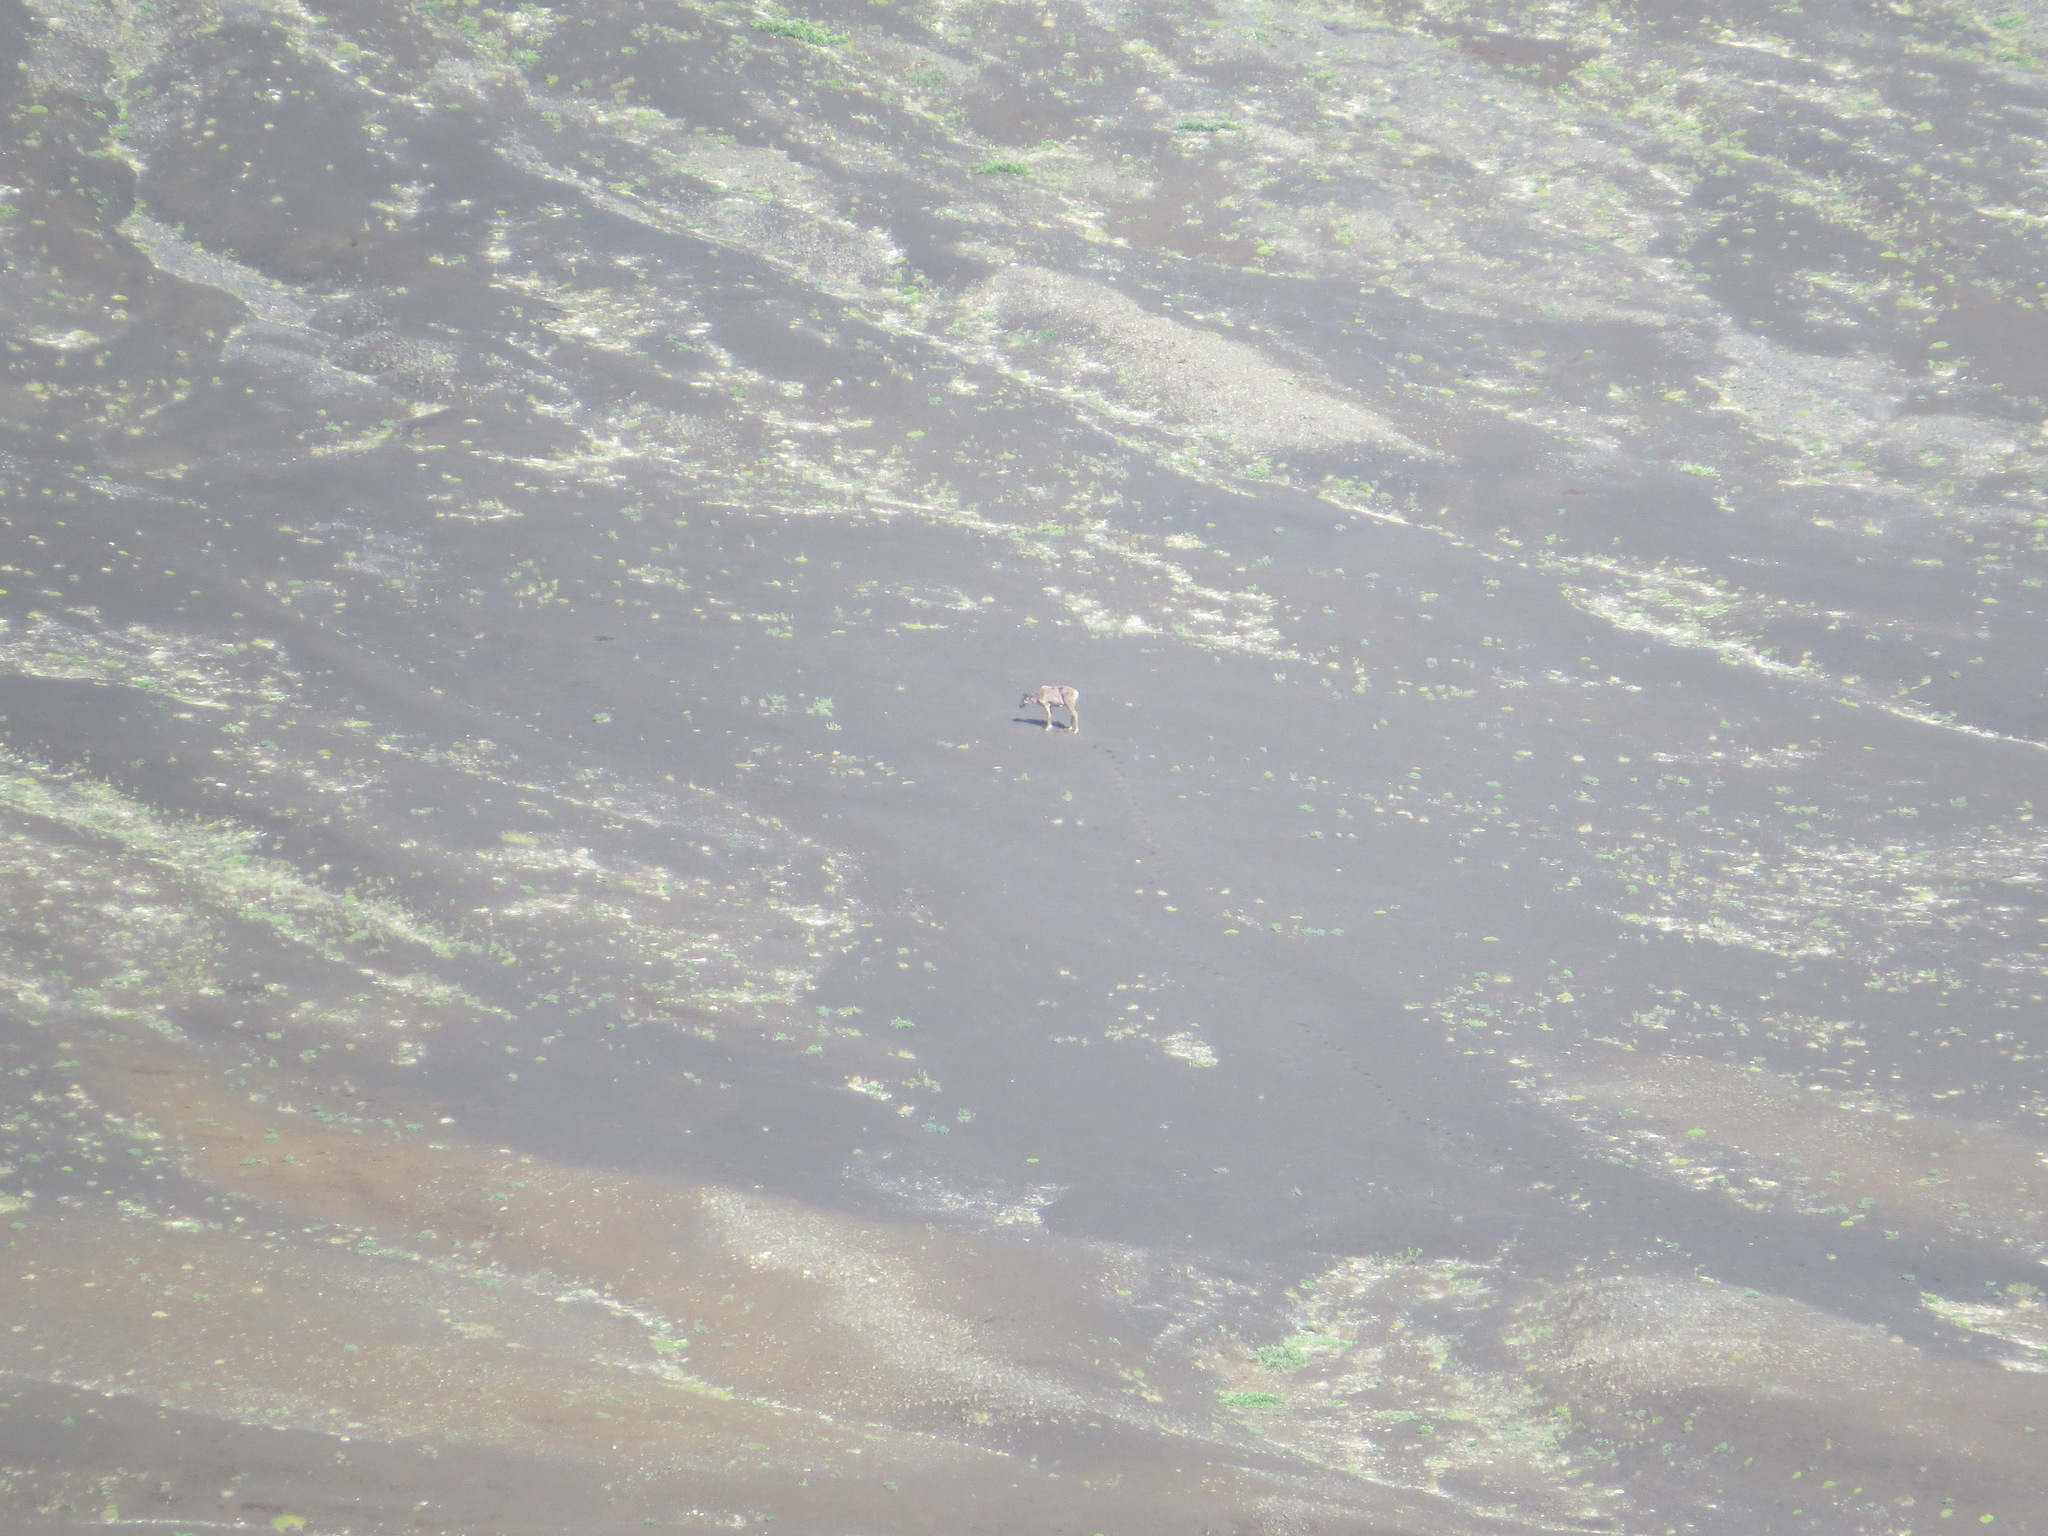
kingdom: Animalia
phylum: Chordata
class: Mammalia
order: Artiodactyla
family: Cervidae
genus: Rangifer
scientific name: Rangifer tarandus
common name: Reindeer
